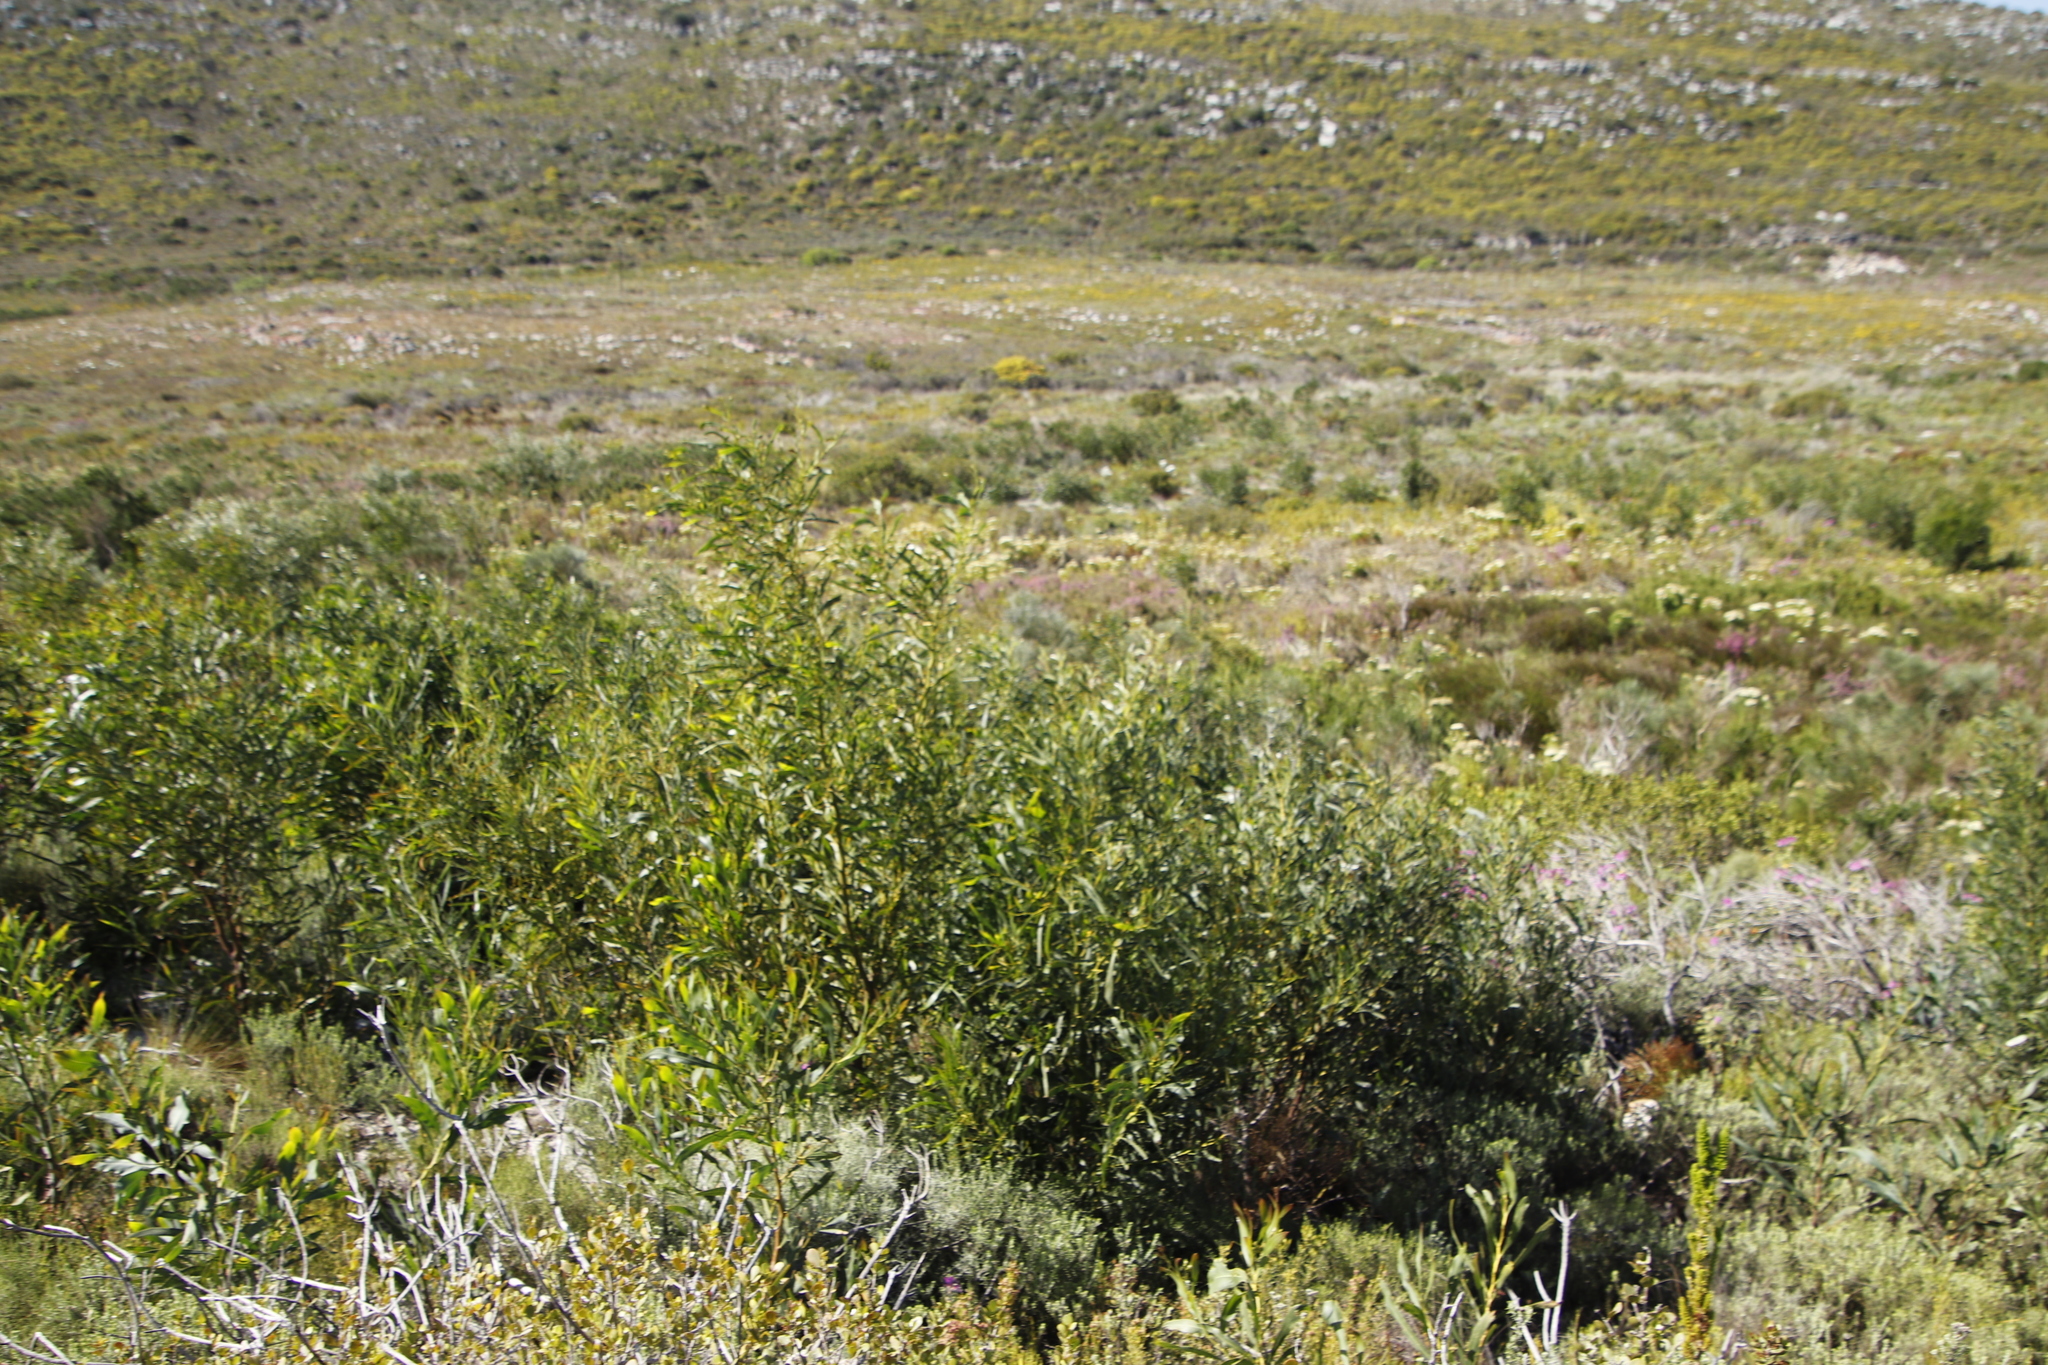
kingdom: Plantae
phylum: Tracheophyta
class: Magnoliopsida
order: Fabales
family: Fabaceae
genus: Acacia
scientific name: Acacia saligna
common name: Orange wattle
